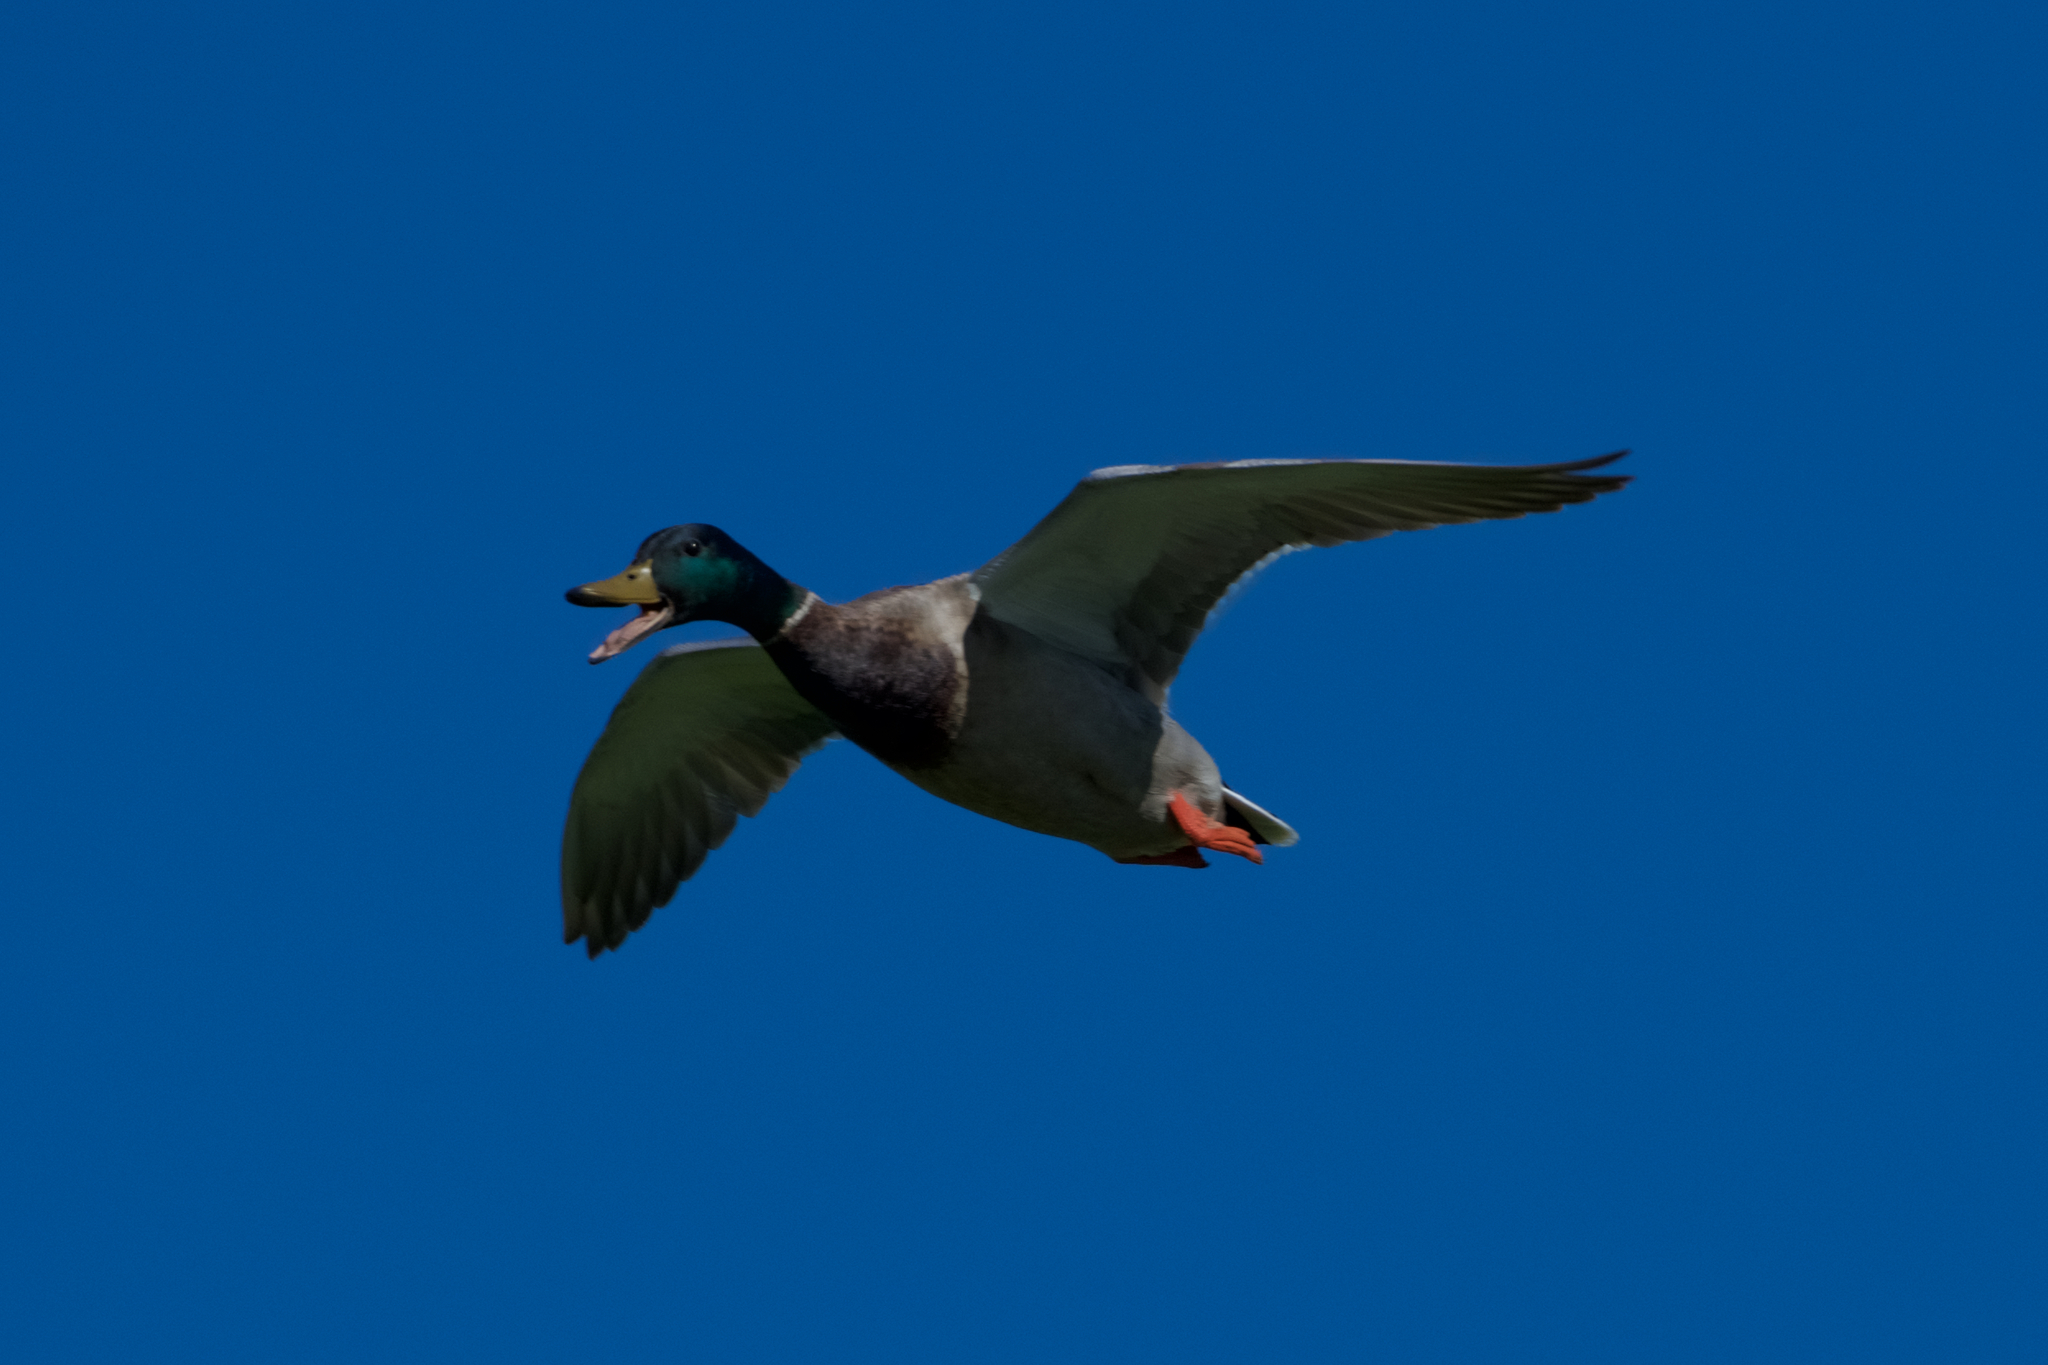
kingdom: Animalia
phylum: Chordata
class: Aves
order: Anseriformes
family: Anatidae
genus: Anas
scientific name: Anas platyrhynchos
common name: Mallard
